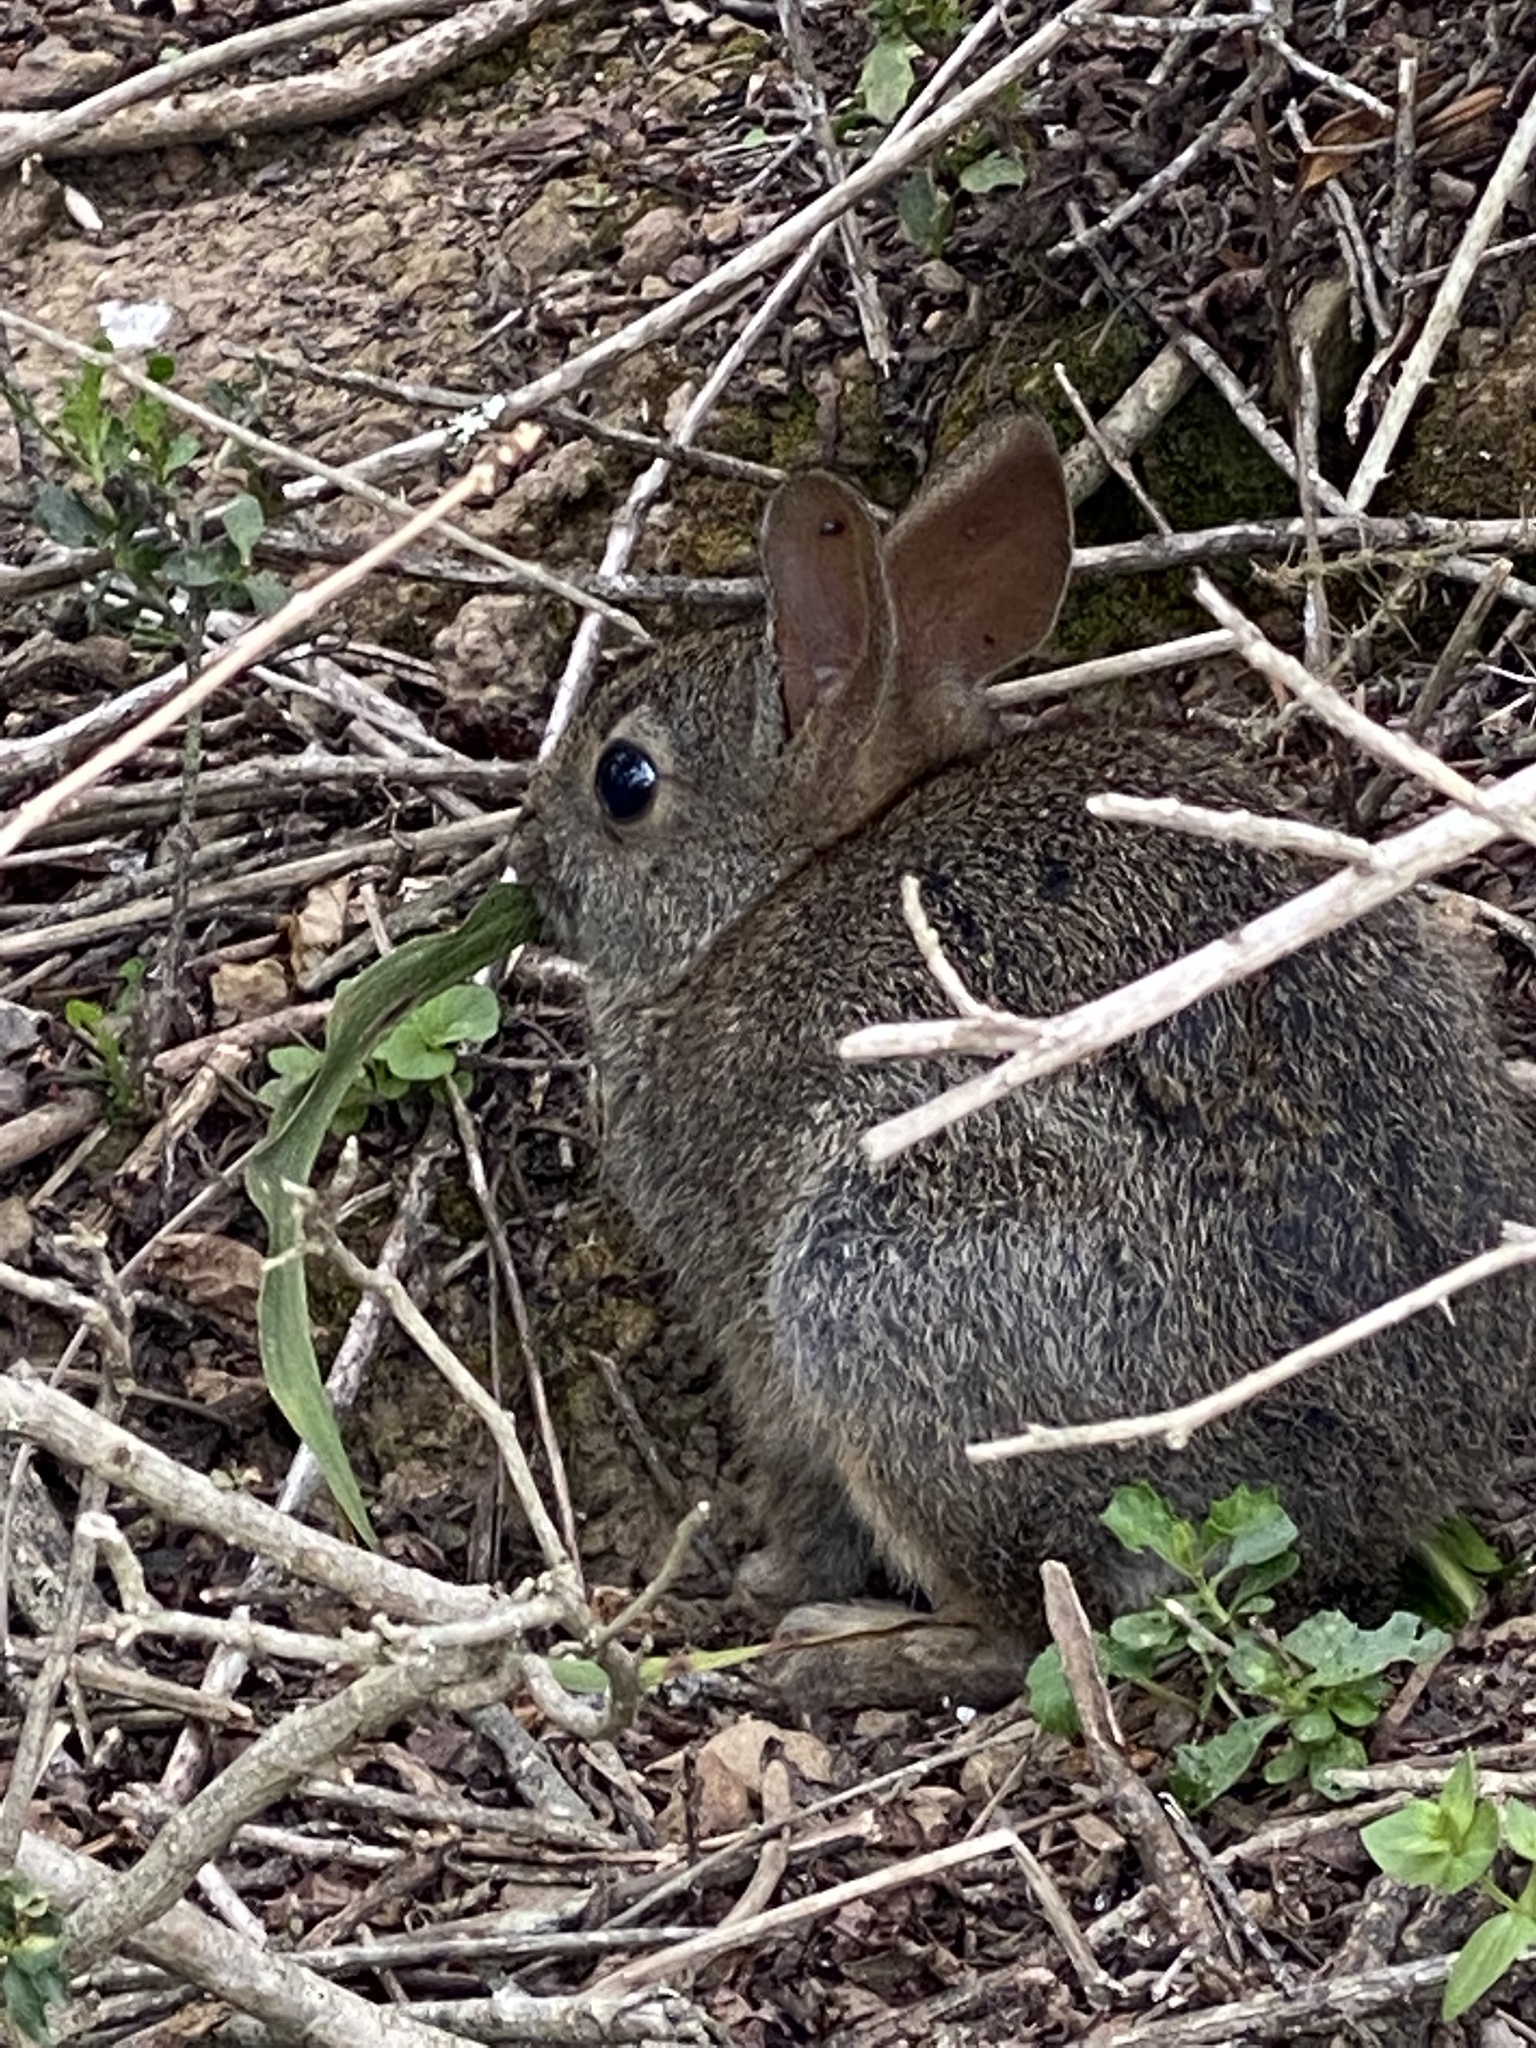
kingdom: Animalia
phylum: Chordata
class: Mammalia
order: Lagomorpha
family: Leporidae
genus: Sylvilagus
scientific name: Sylvilagus bachmani
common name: Brush rabbit
